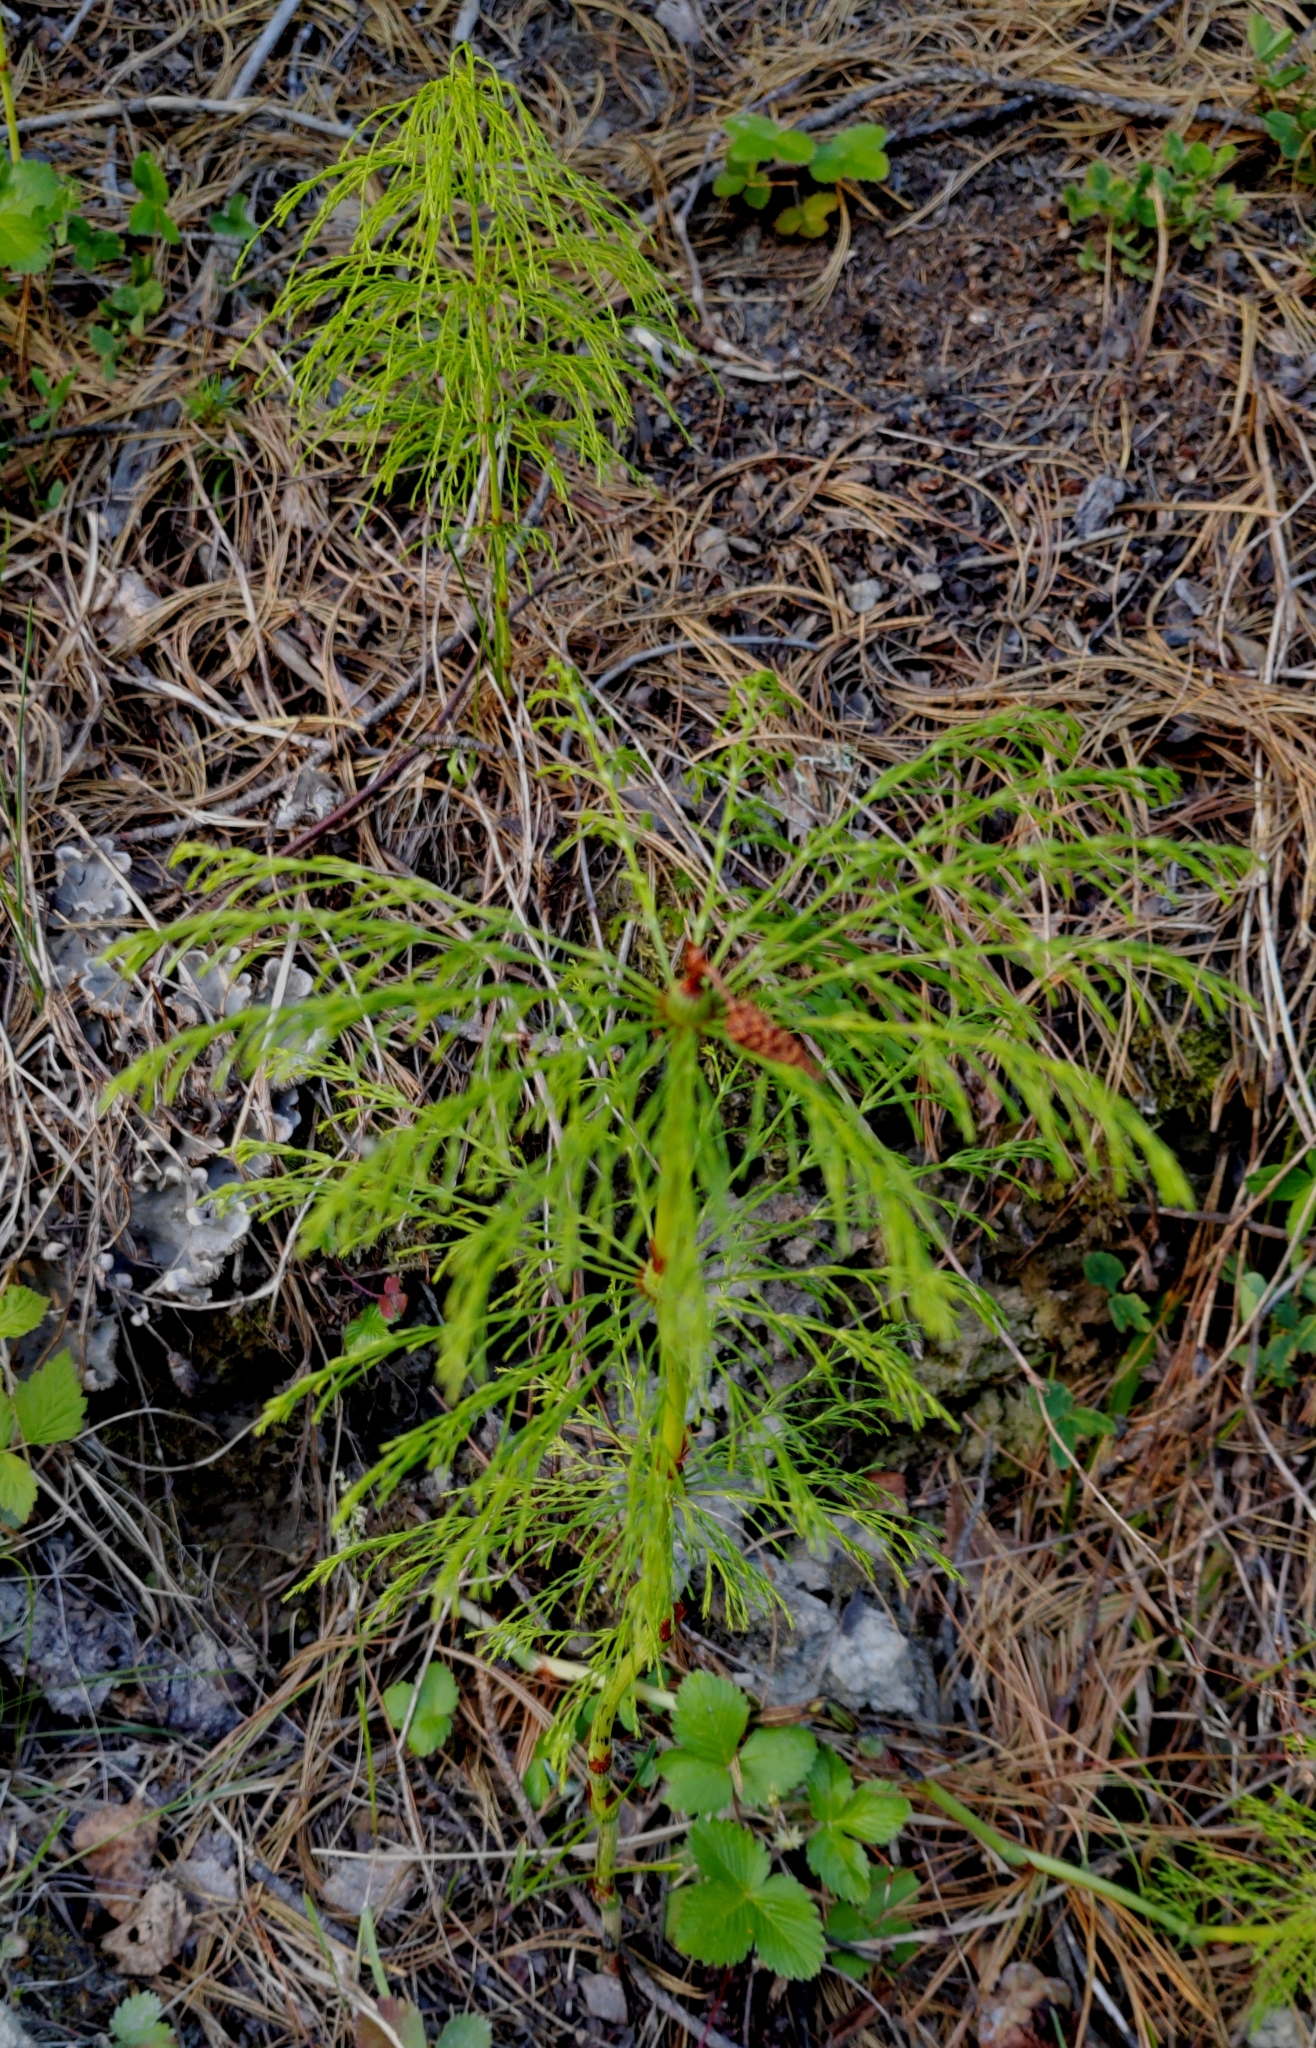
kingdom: Plantae
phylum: Tracheophyta
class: Polypodiopsida
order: Equisetales
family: Equisetaceae
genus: Equisetum
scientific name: Equisetum sylvaticum
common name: Wood horsetail
